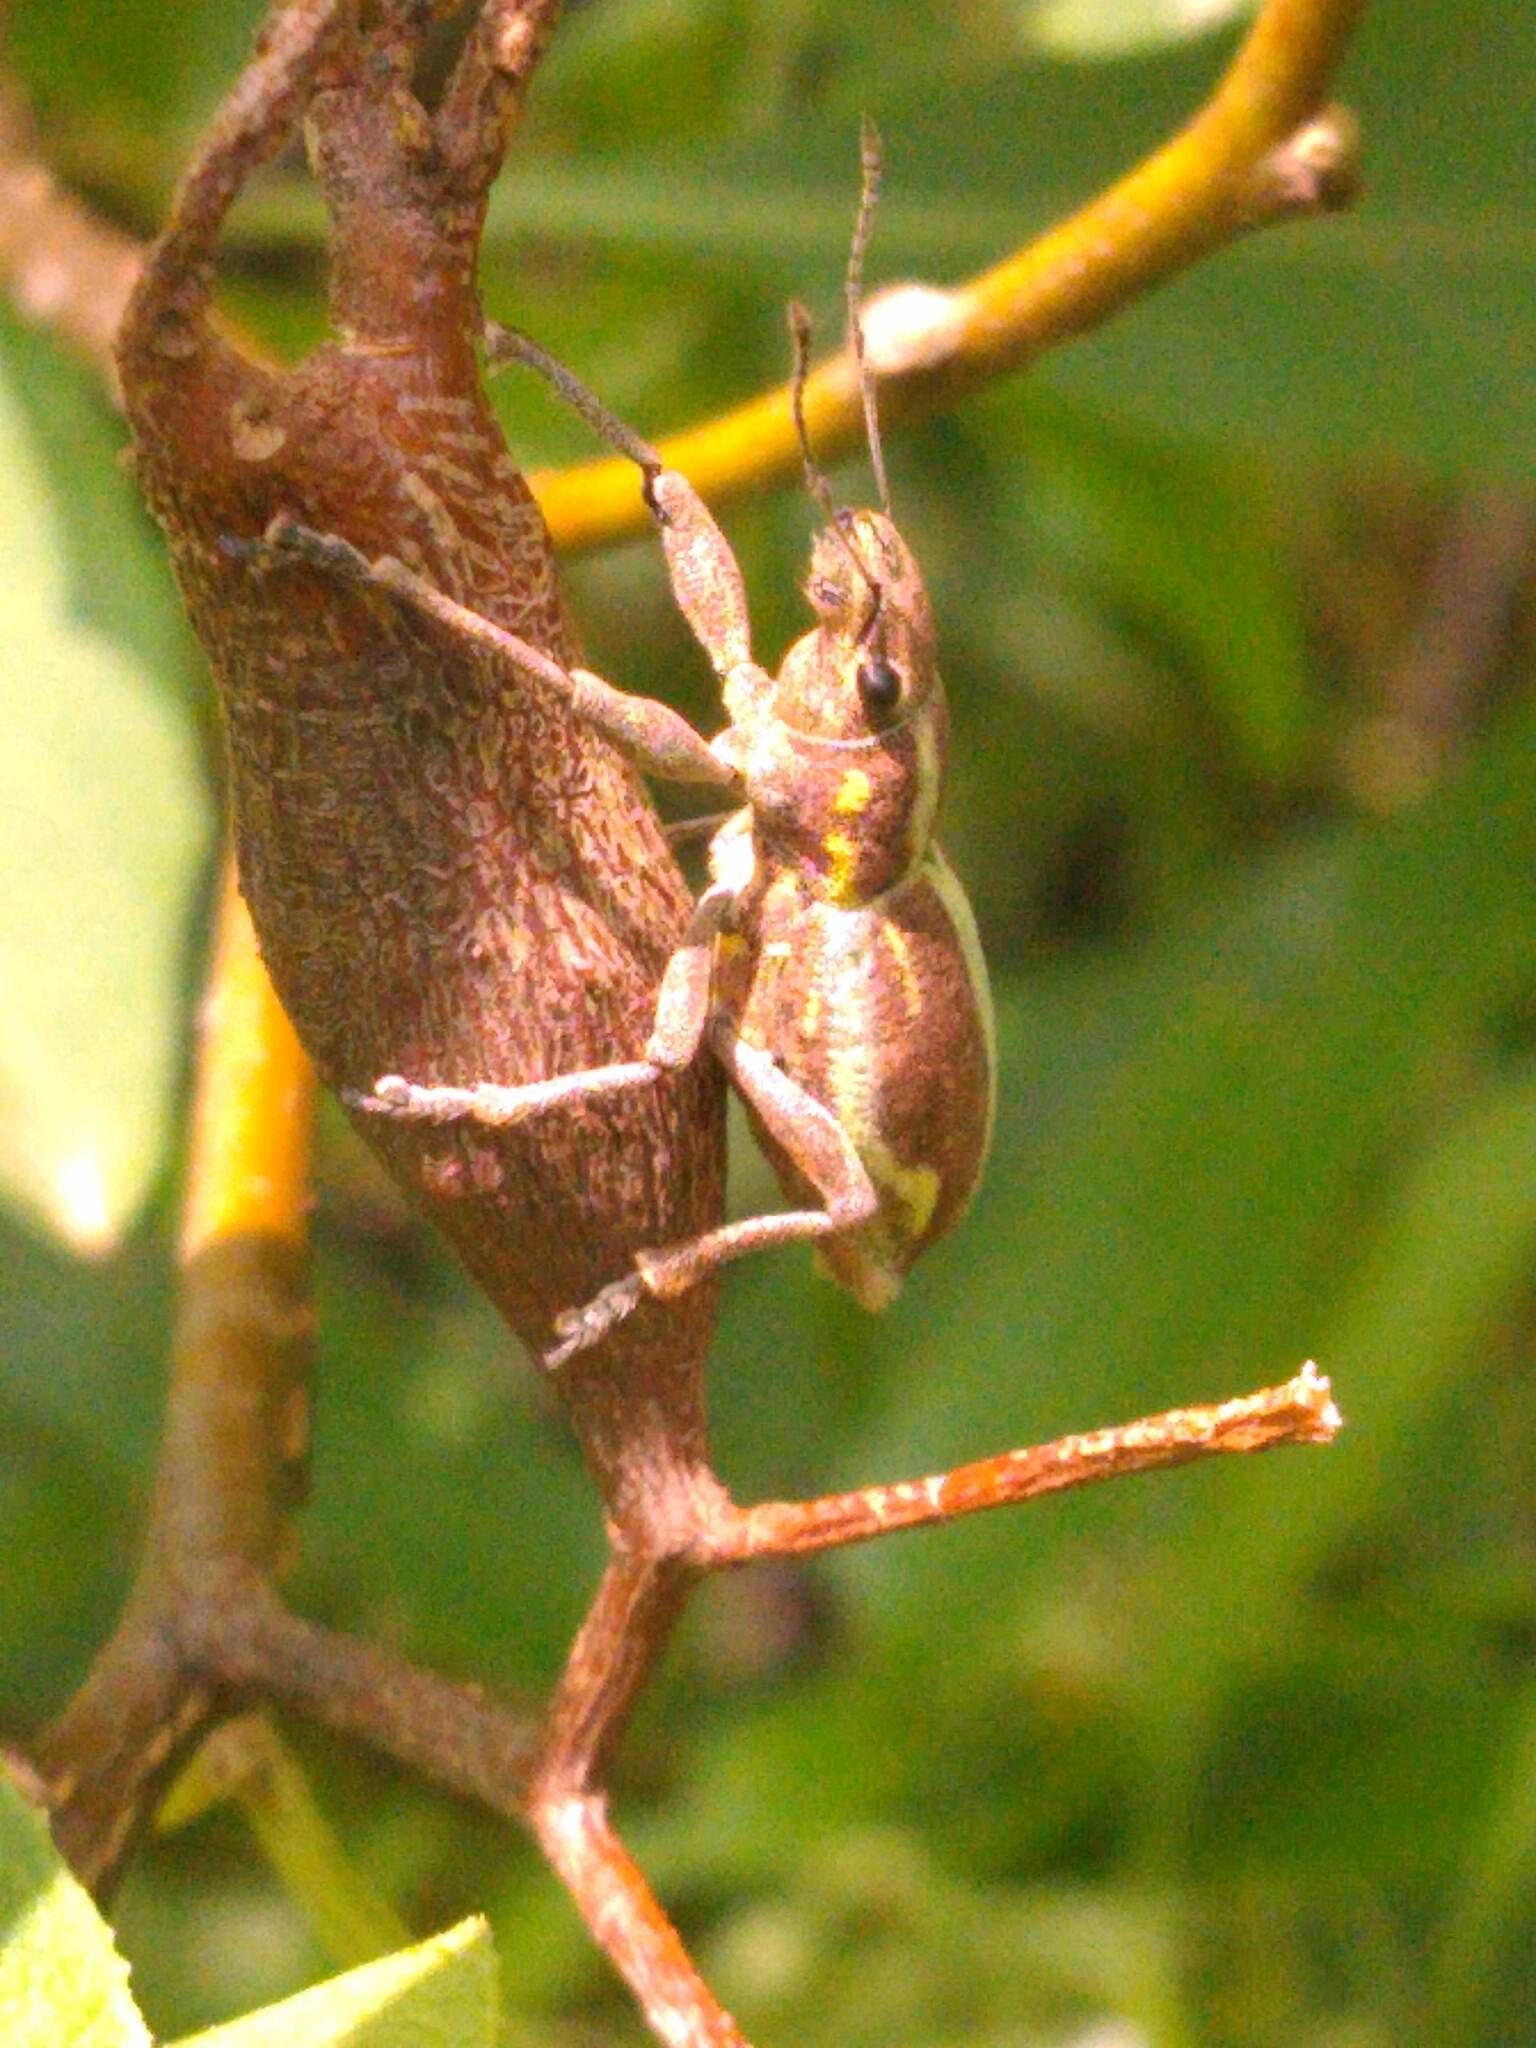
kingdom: Animalia
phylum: Arthropoda
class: Insecta
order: Coleoptera
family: Curculionidae
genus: Naupactus
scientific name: Naupactus xanthographus
